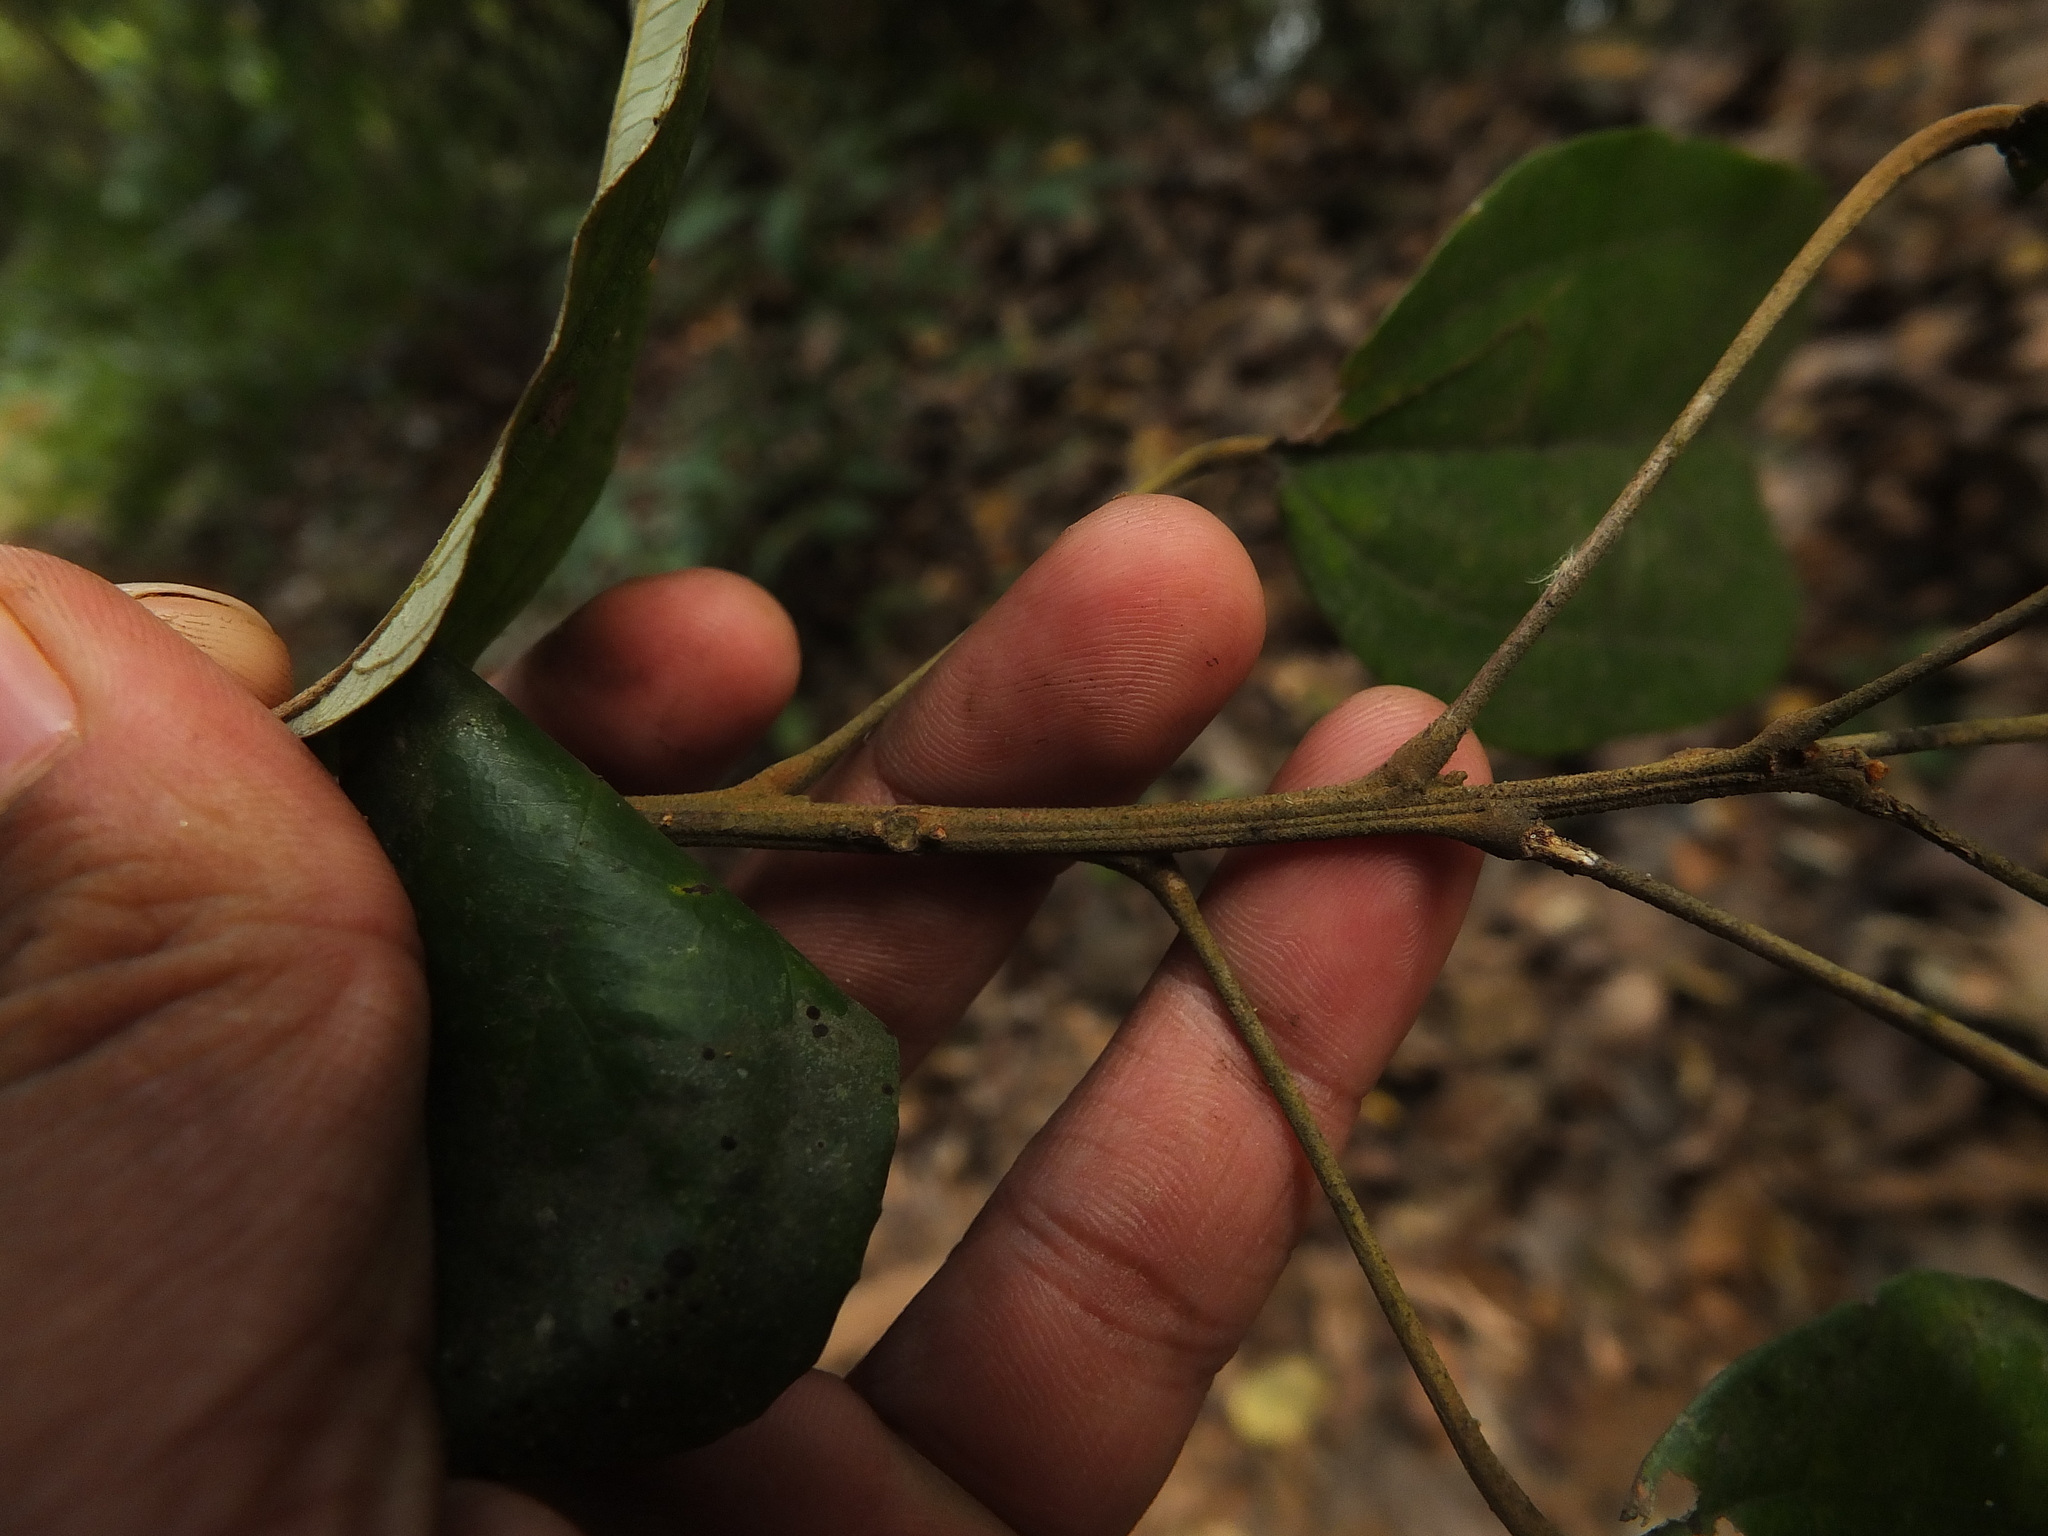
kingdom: Plantae
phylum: Tracheophyta
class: Magnoliopsida
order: Malpighiales
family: Euphorbiaceae
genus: Mallotus
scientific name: Mallotus philippensis
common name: Kamala tree
